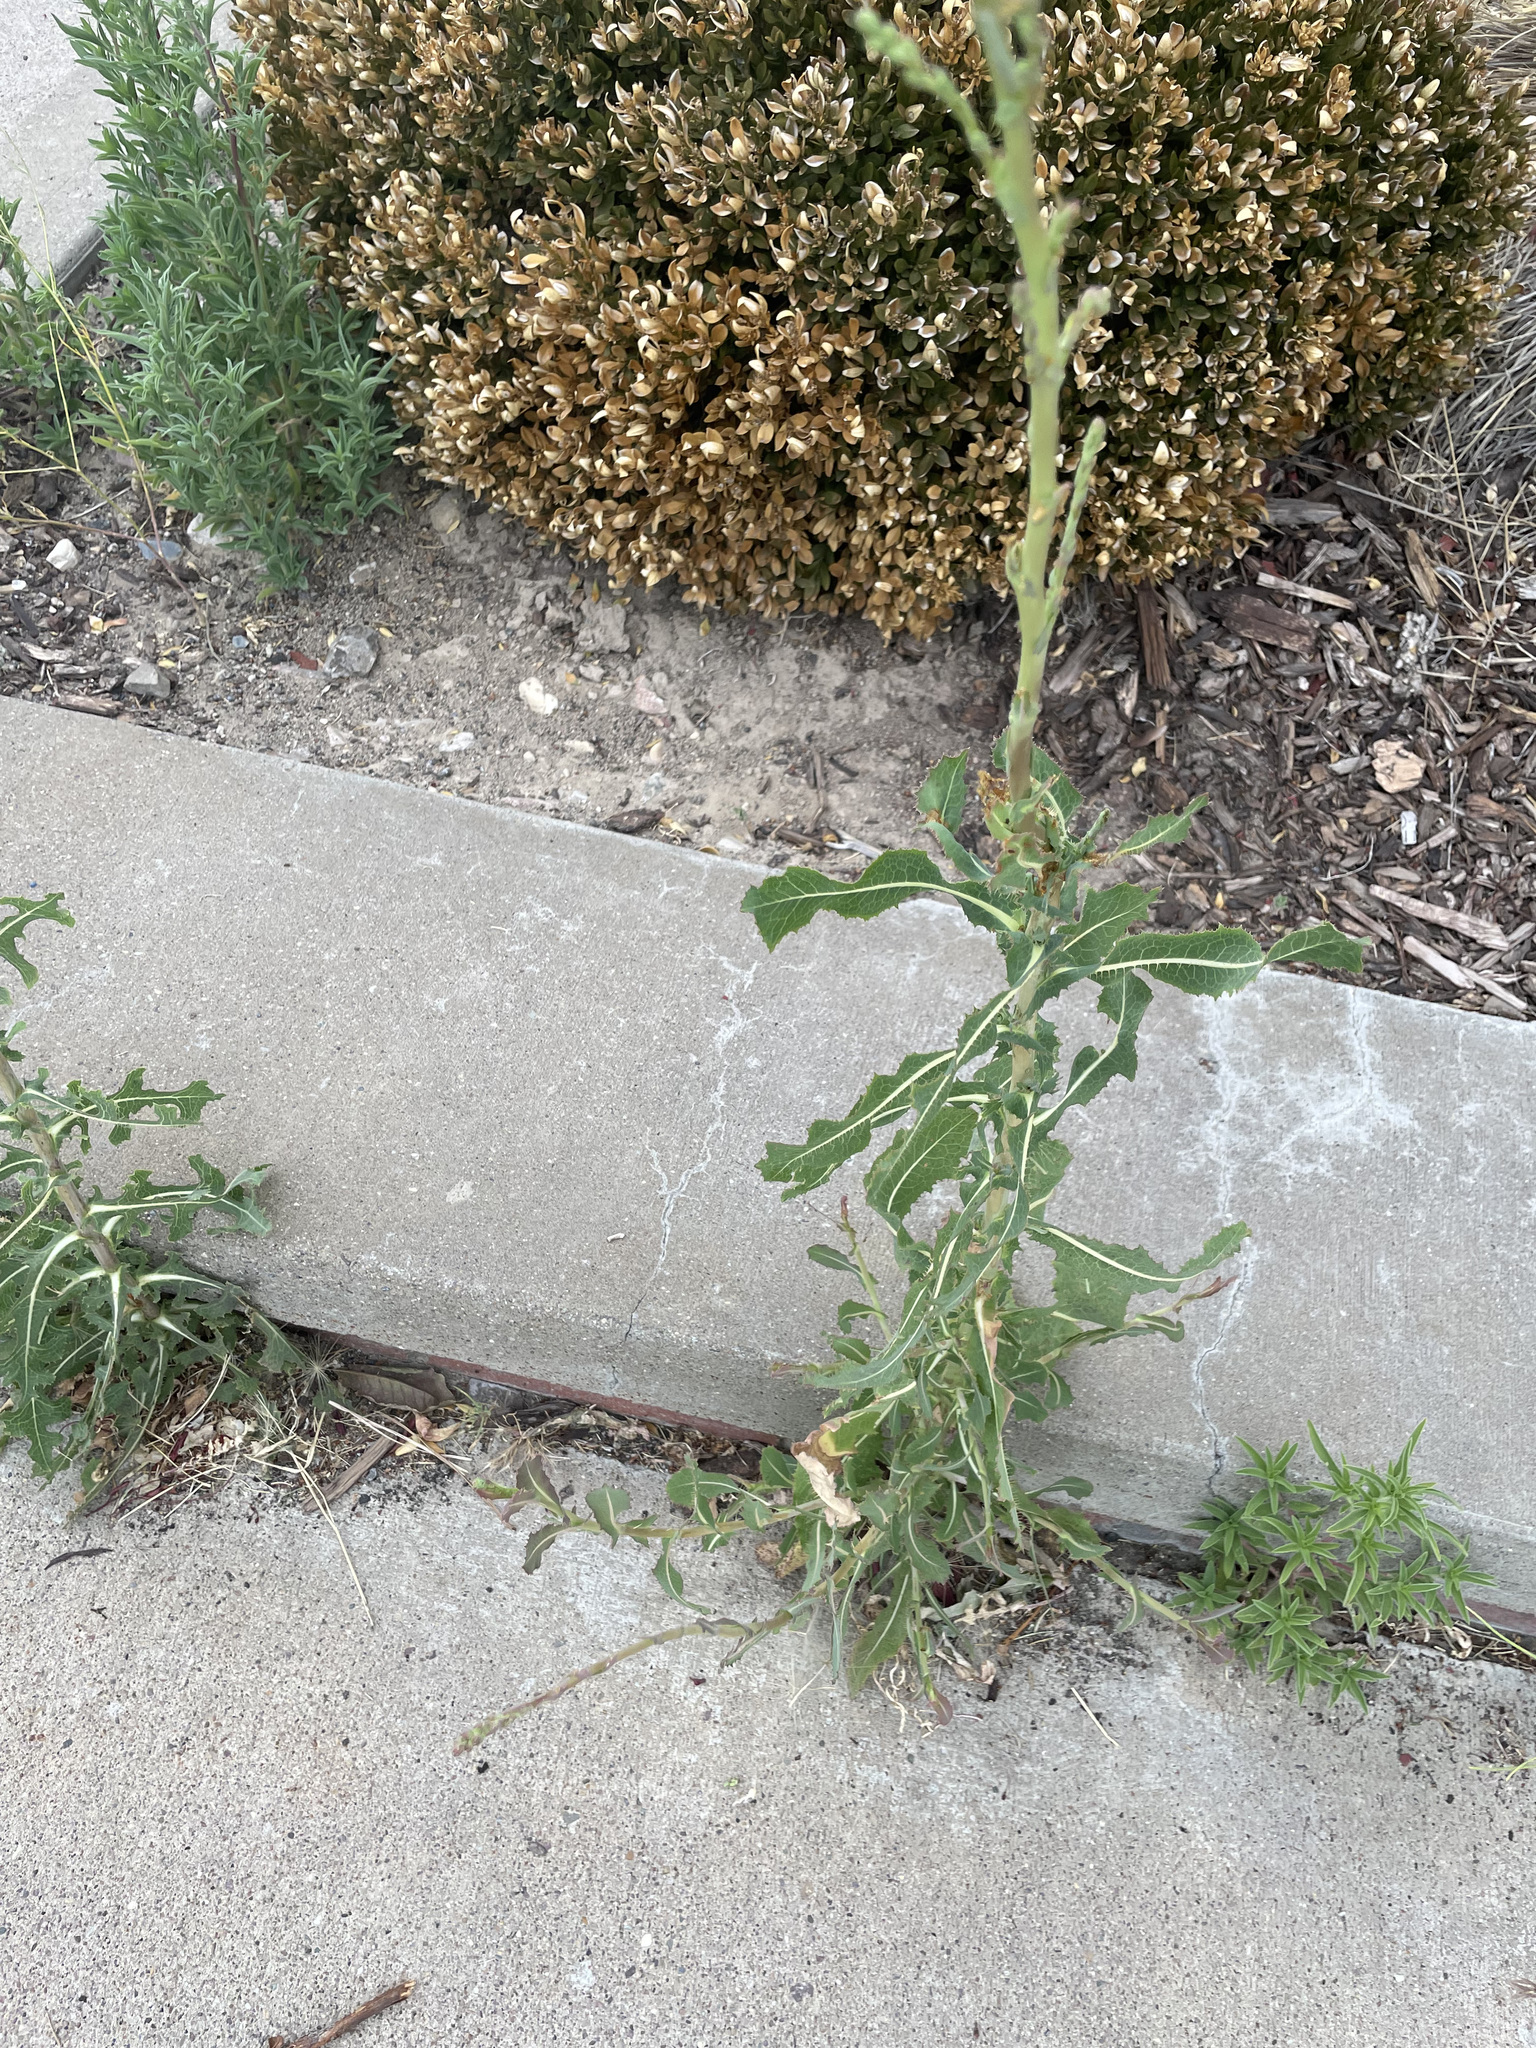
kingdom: Plantae
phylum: Tracheophyta
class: Magnoliopsida
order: Asterales
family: Asteraceae
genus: Lactuca
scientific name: Lactuca serriola
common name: Prickly lettuce
